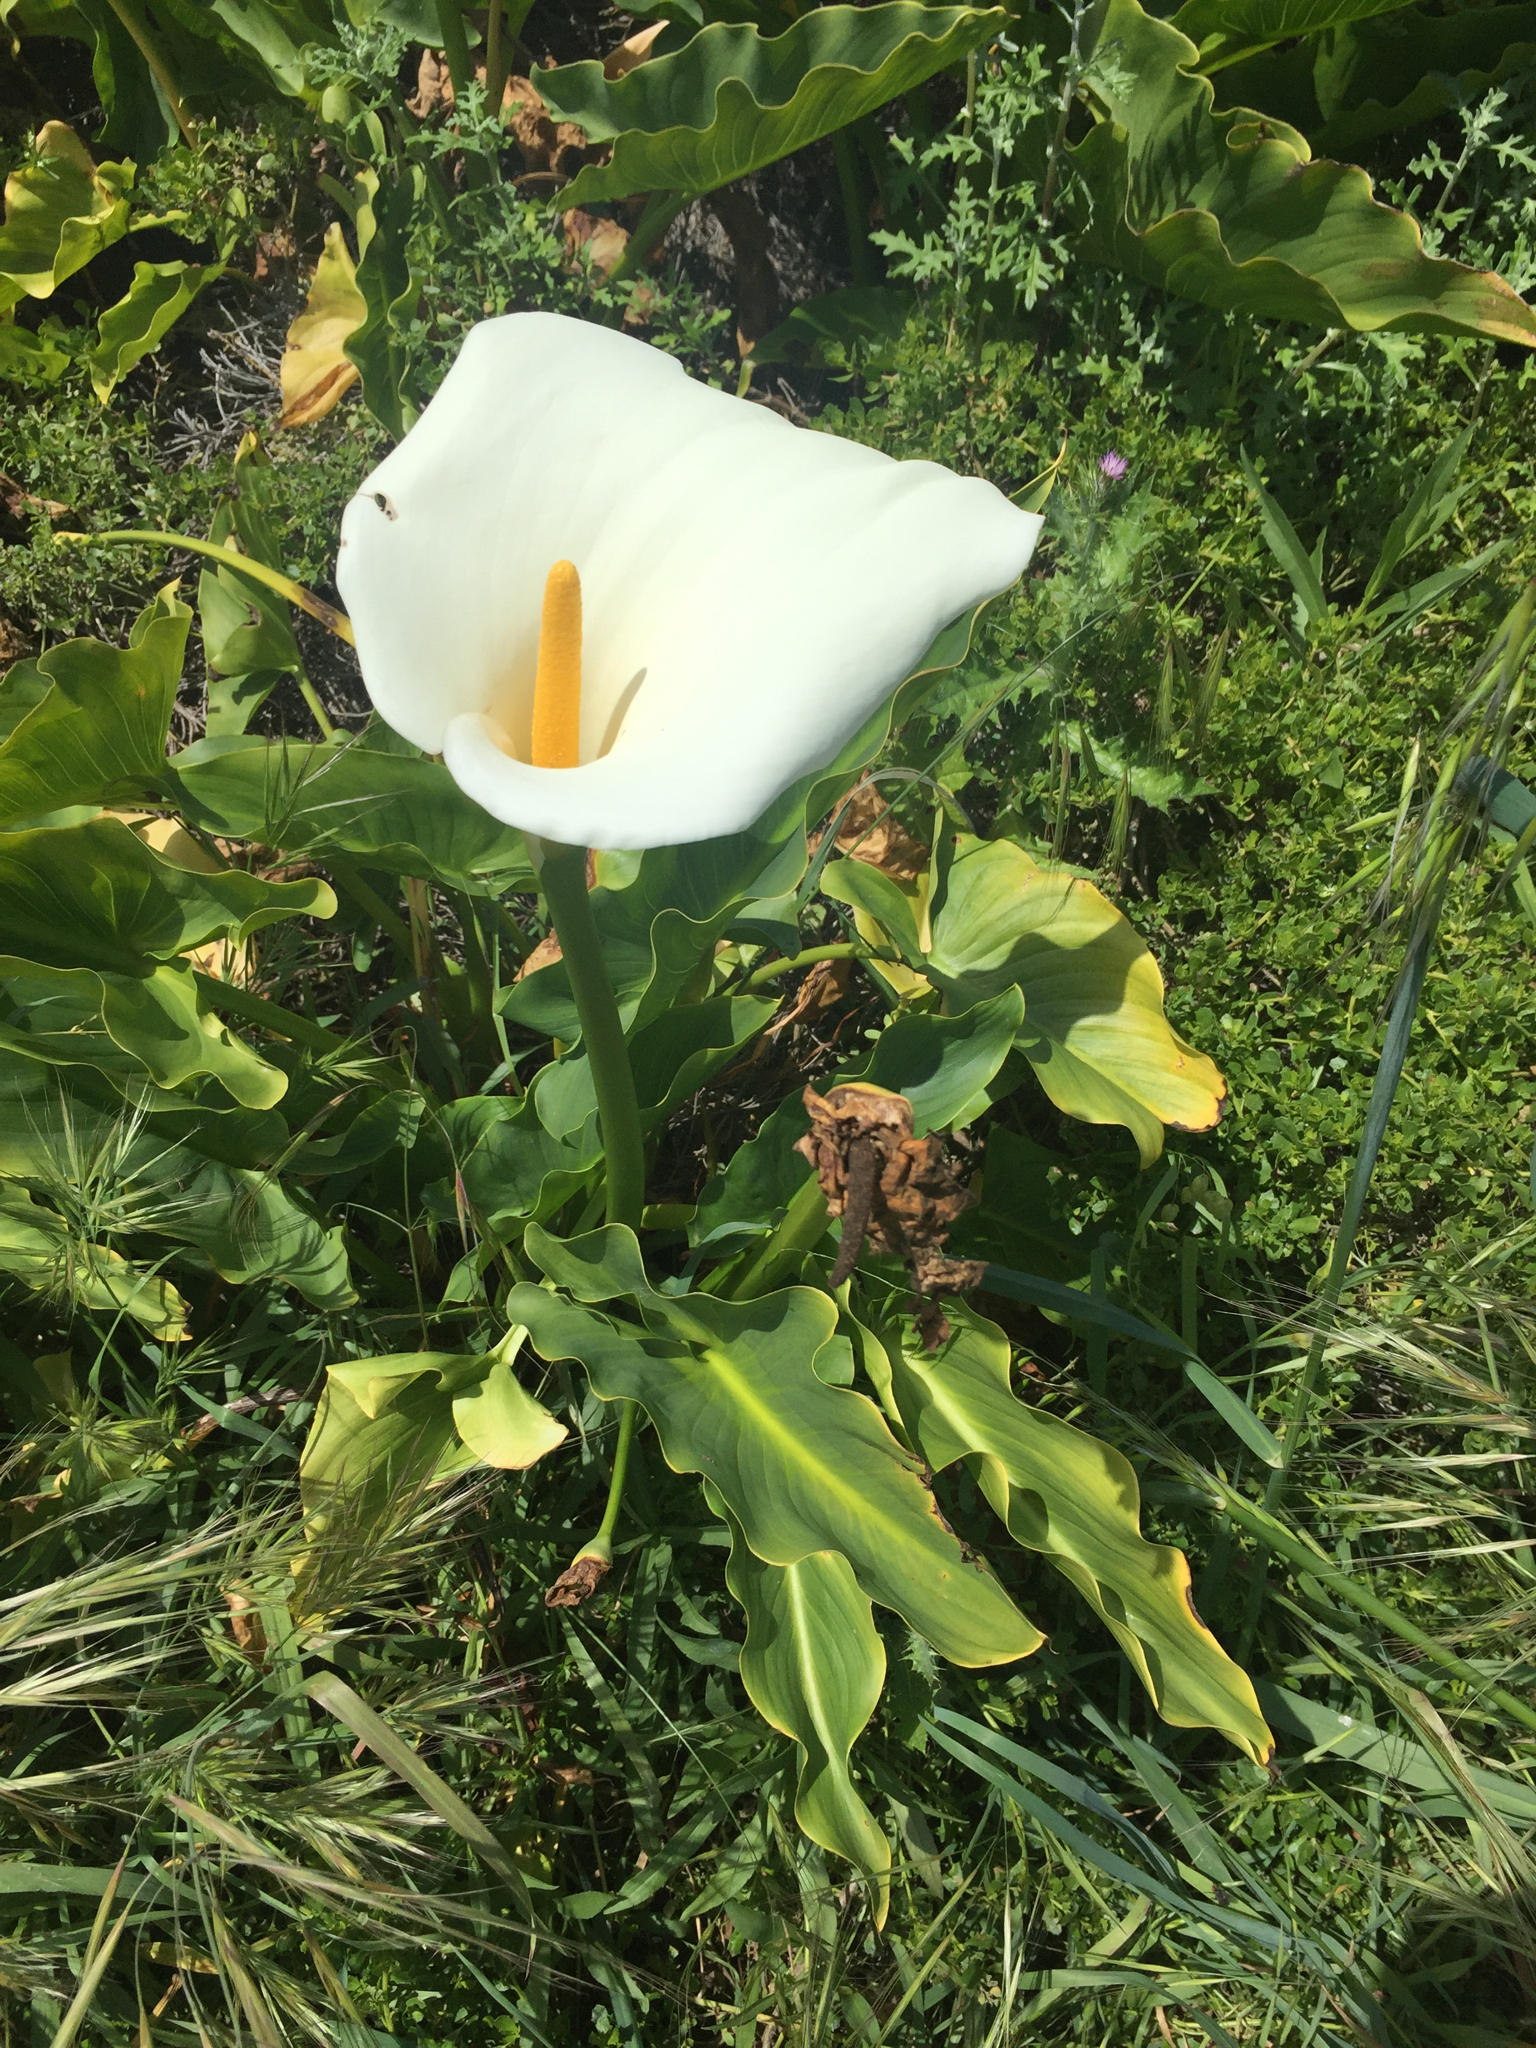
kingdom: Plantae
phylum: Tracheophyta
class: Liliopsida
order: Alismatales
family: Araceae
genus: Zantedeschia
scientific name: Zantedeschia aethiopica
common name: Altar-lily
